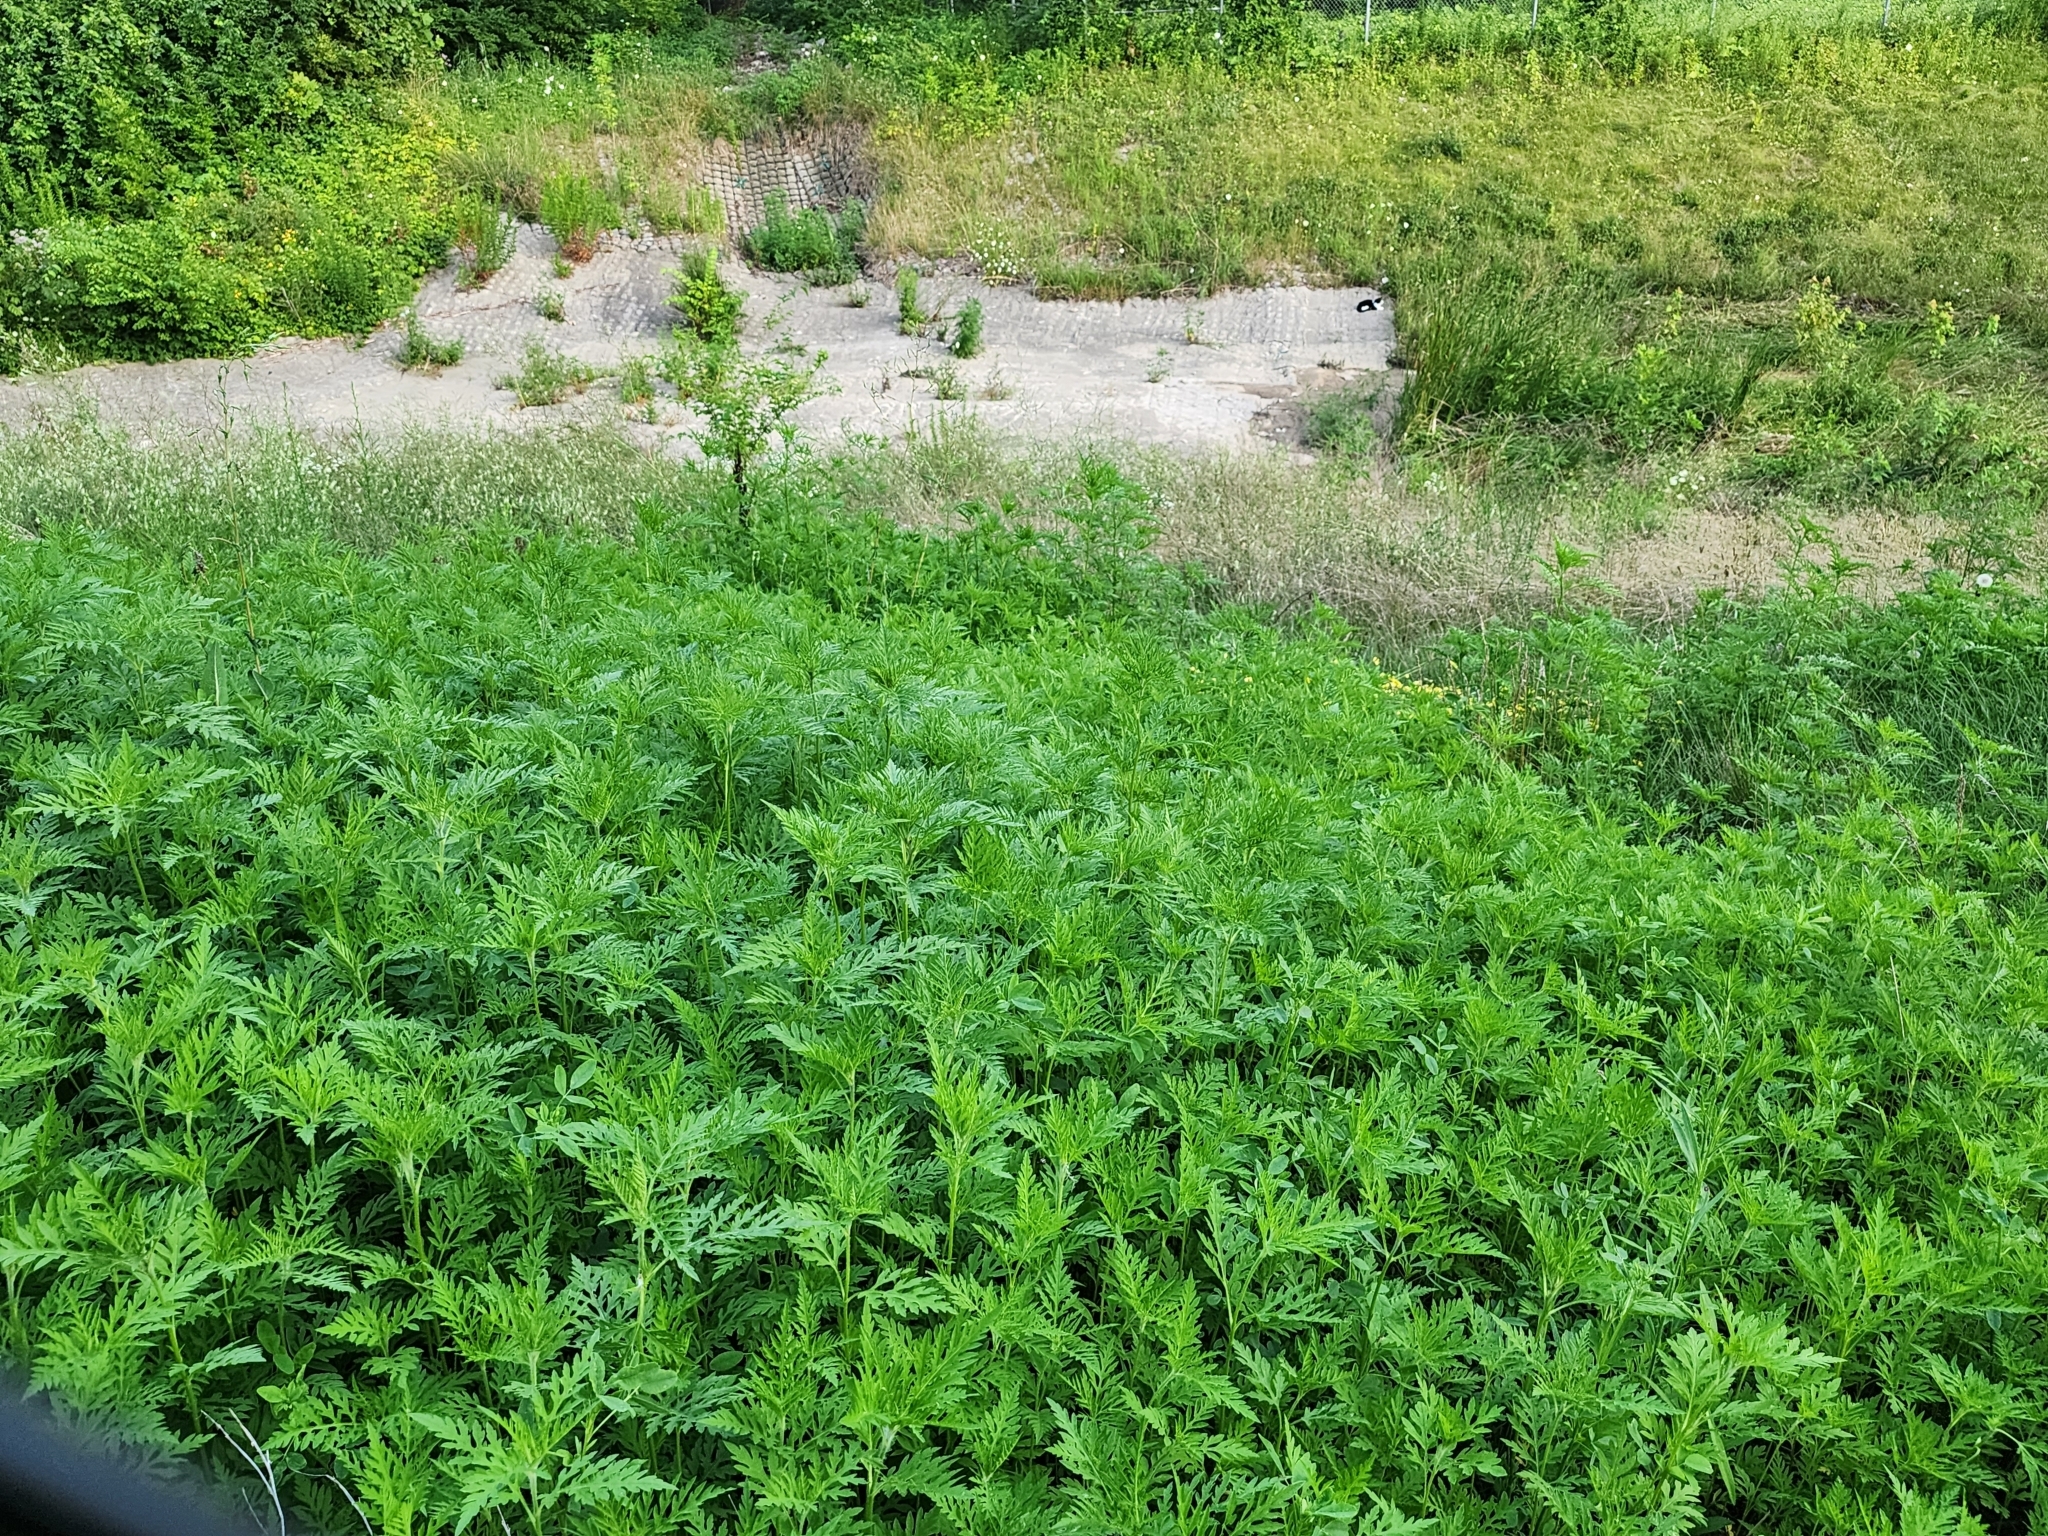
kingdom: Plantae
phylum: Tracheophyta
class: Magnoliopsida
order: Asterales
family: Asteraceae
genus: Ambrosia
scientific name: Ambrosia artemisiifolia
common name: Annual ragweed
